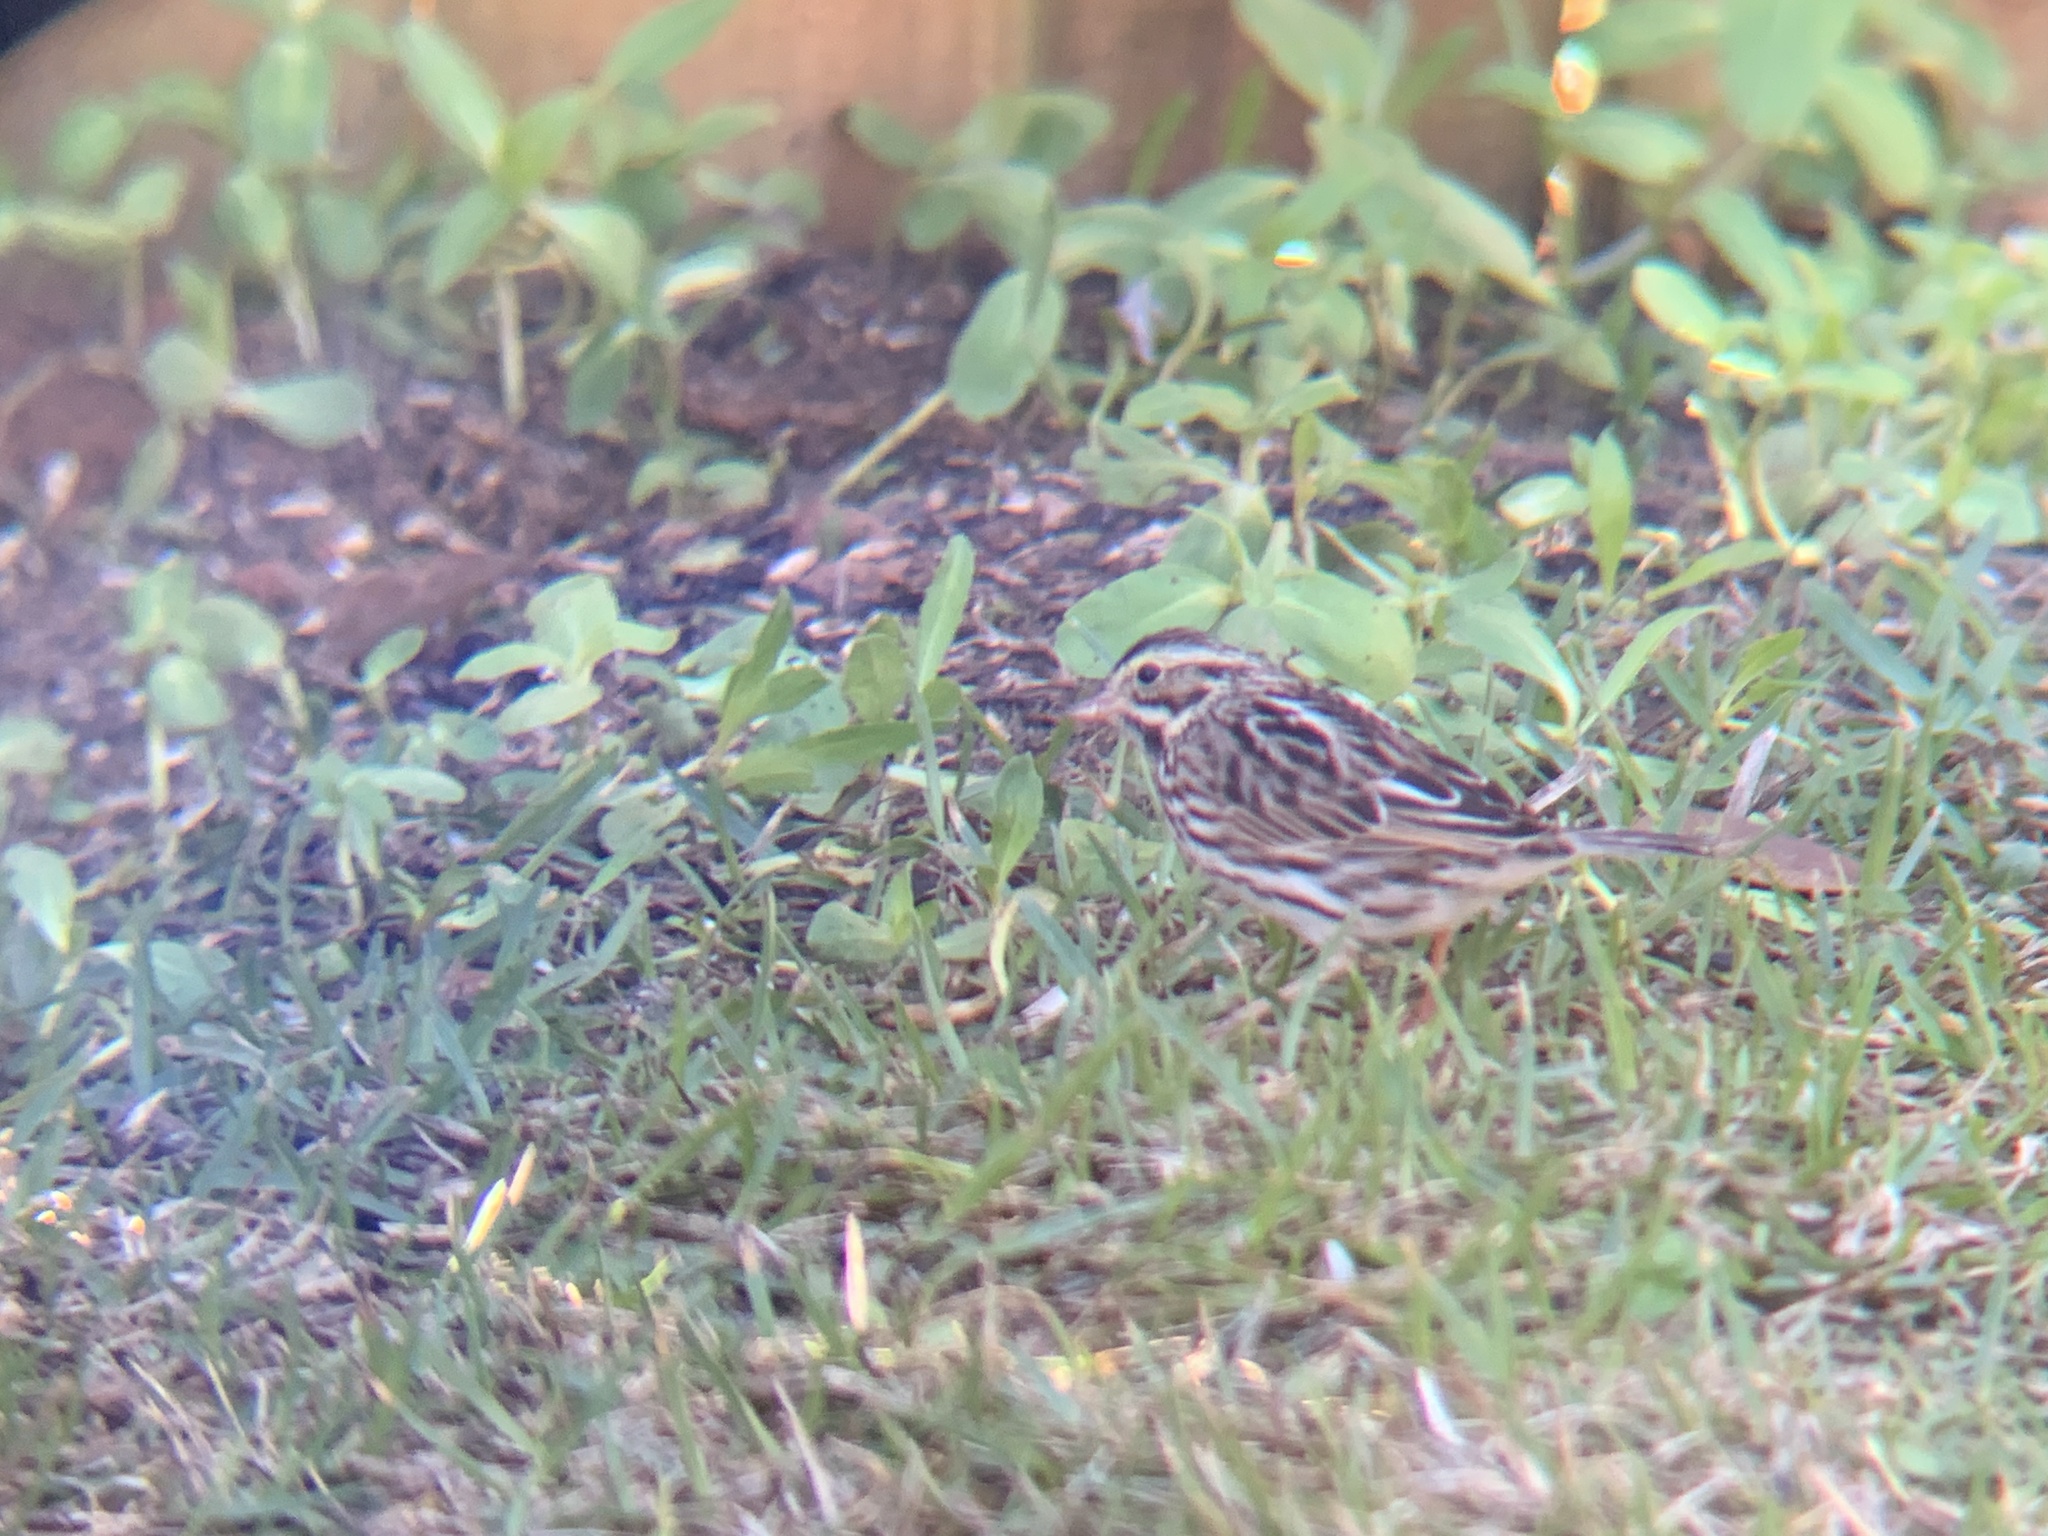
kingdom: Animalia
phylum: Chordata
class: Aves
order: Passeriformes
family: Passerellidae
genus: Melospiza
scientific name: Melospiza melodia
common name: Song sparrow
